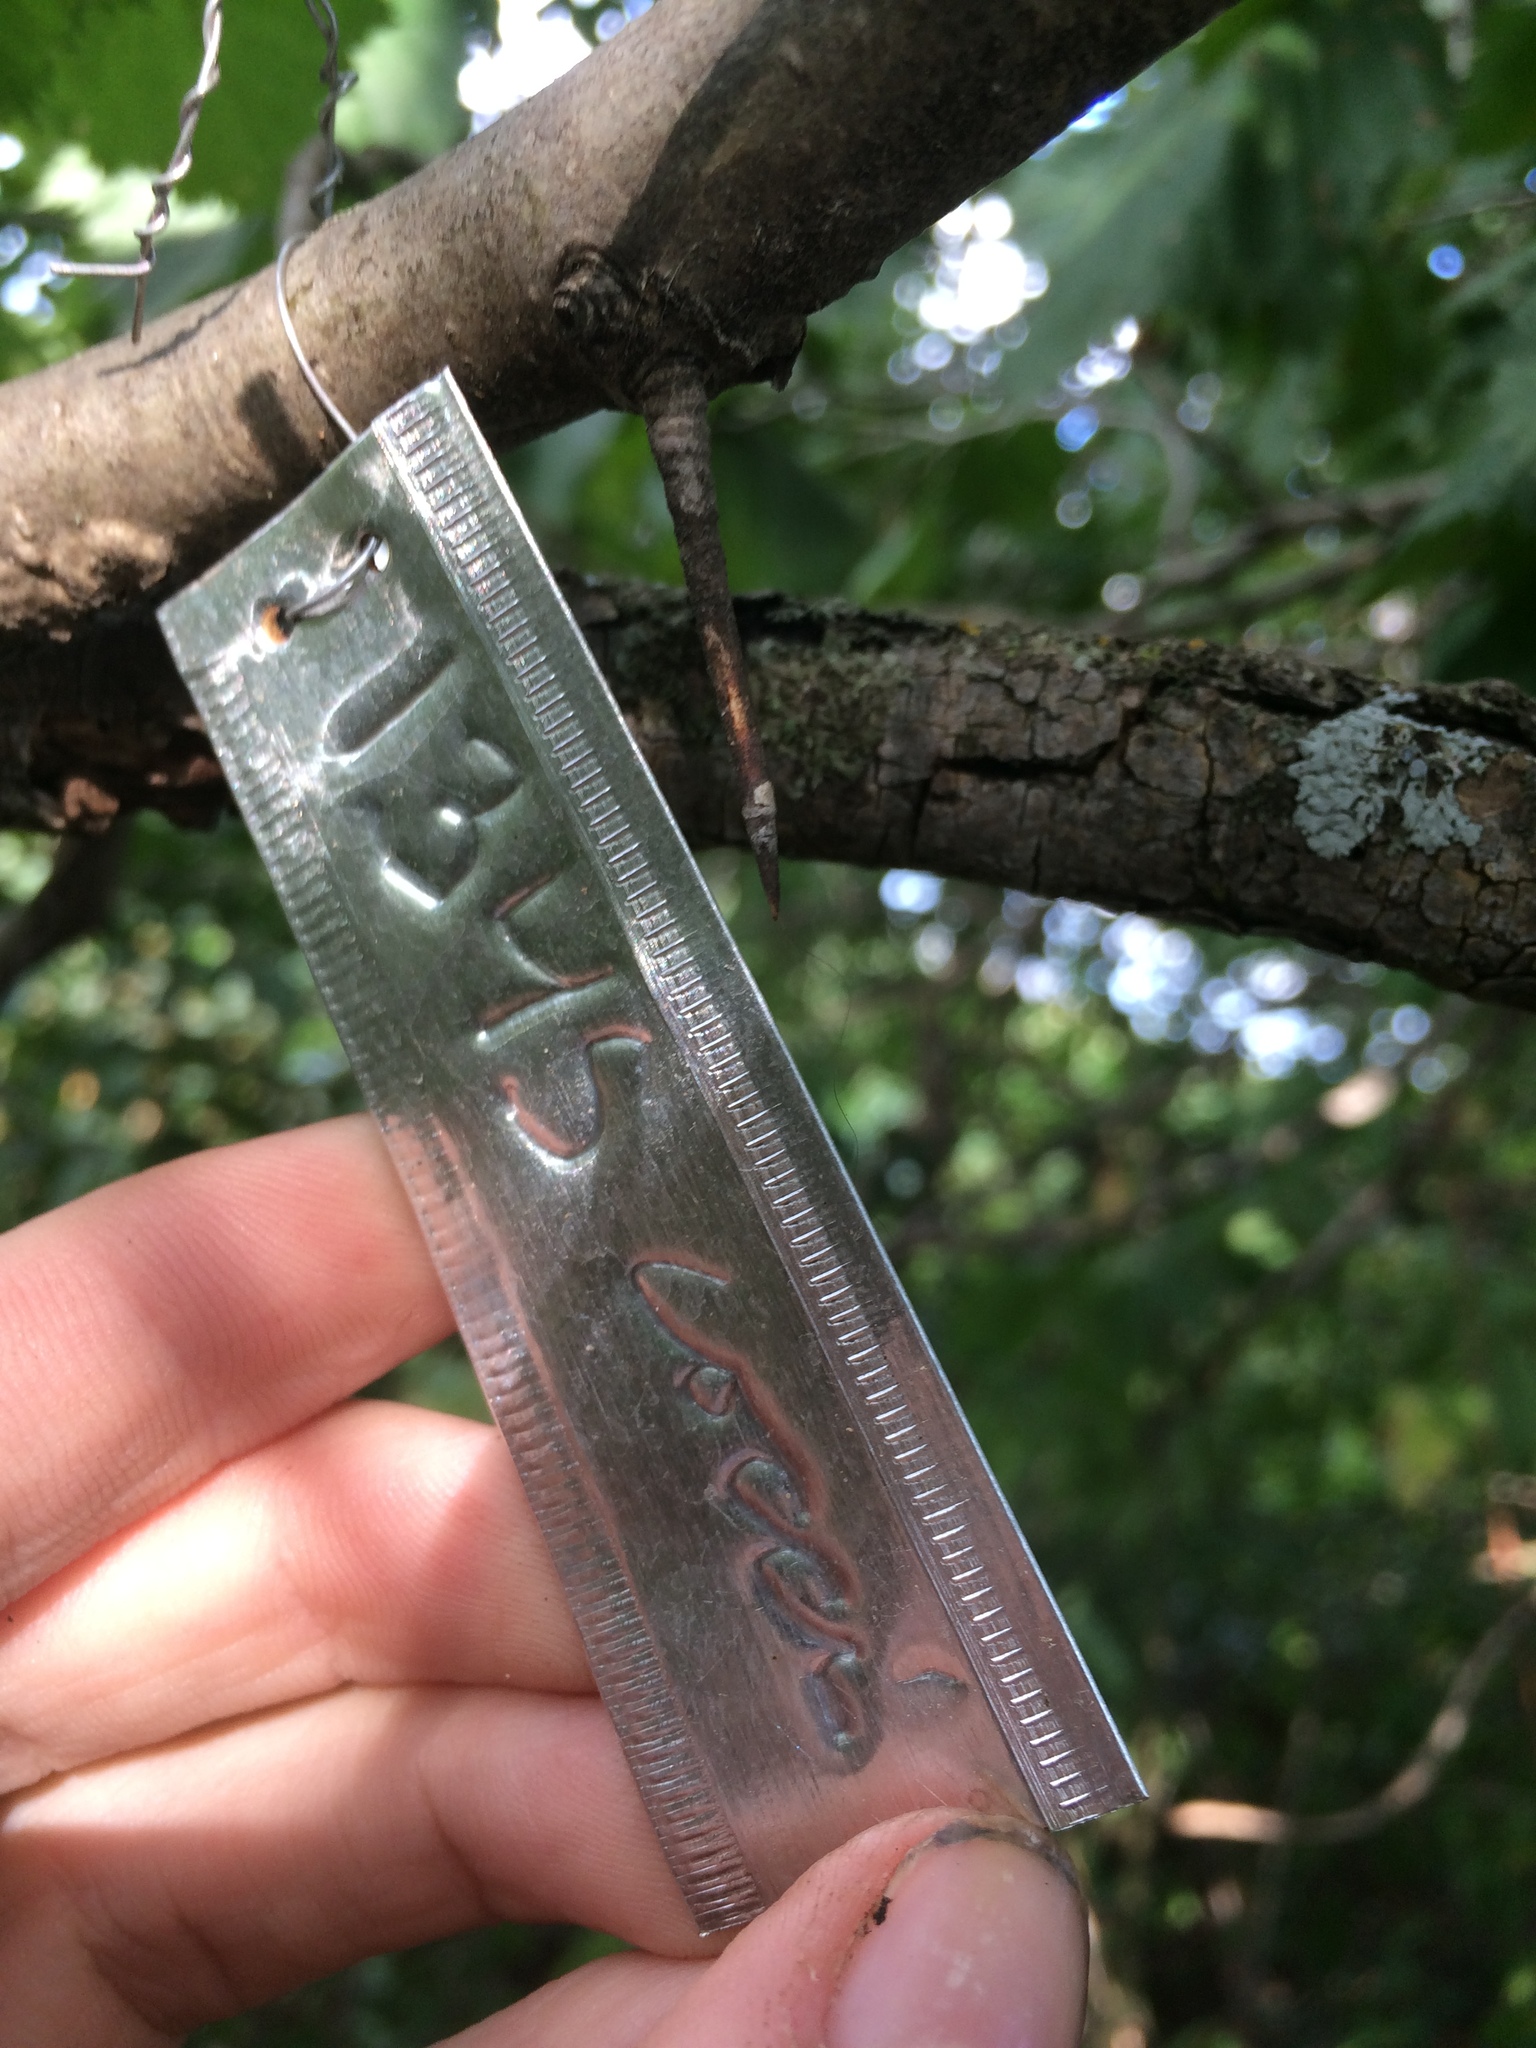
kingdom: Plantae
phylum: Tracheophyta
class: Magnoliopsida
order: Rosales
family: Rosaceae
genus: Crataegus
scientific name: Crataegus coccinioides
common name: Large-flowered cockspurthorn
